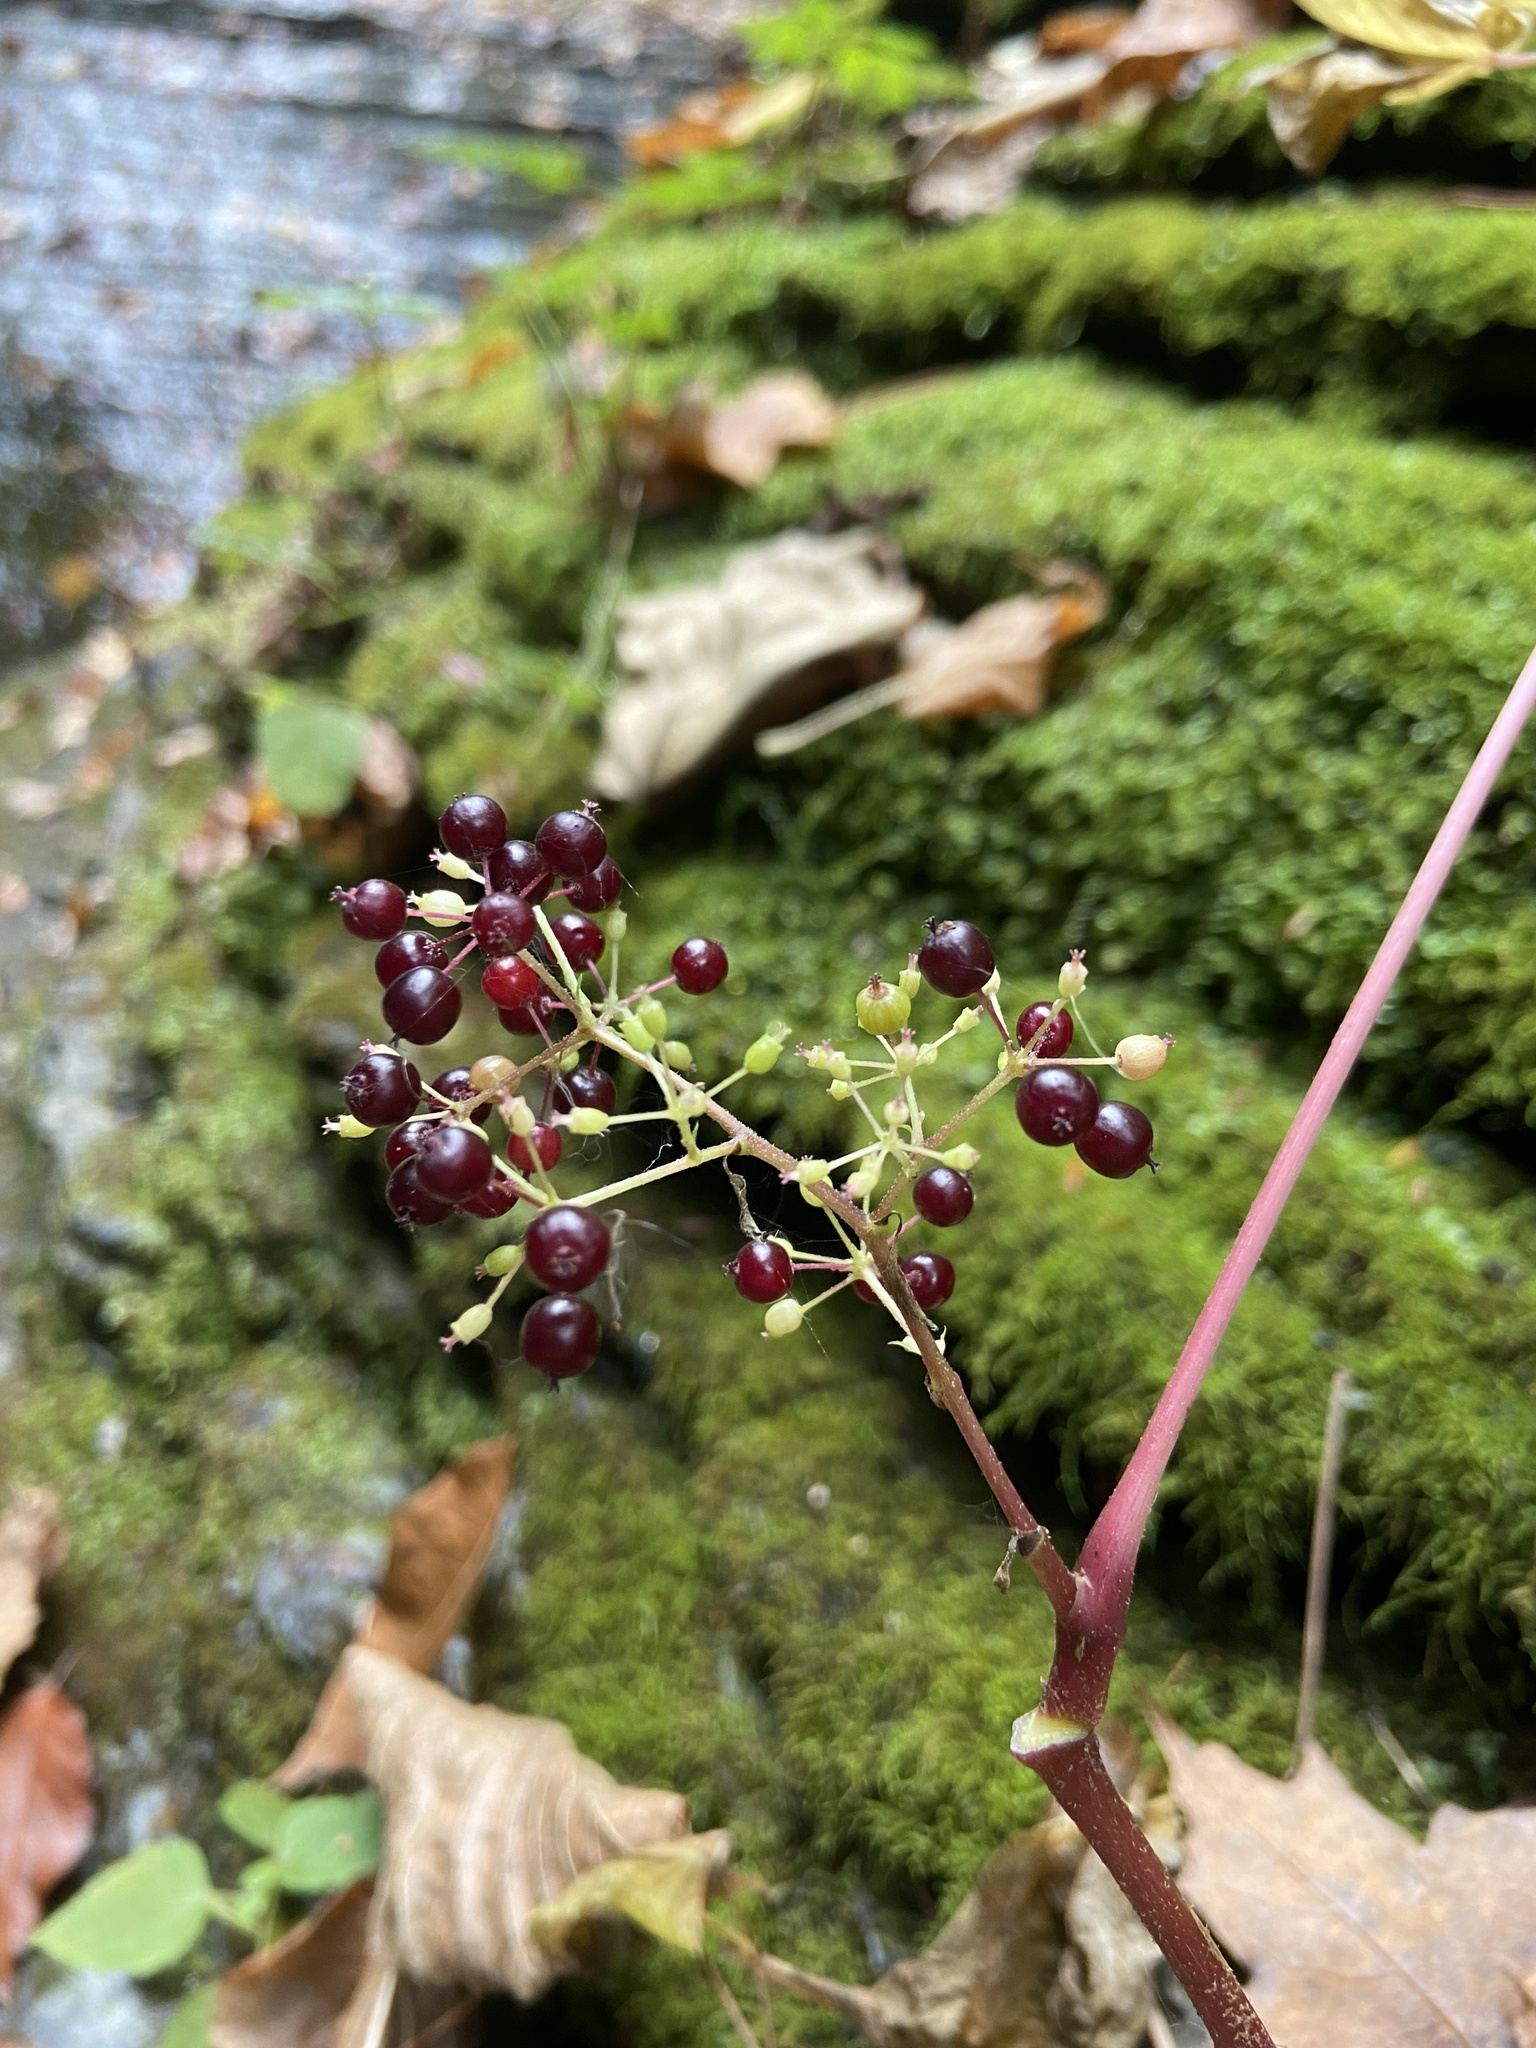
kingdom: Plantae
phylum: Tracheophyta
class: Magnoliopsida
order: Apiales
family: Araliaceae
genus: Aralia
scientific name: Aralia racemosa
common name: American-spikenard
